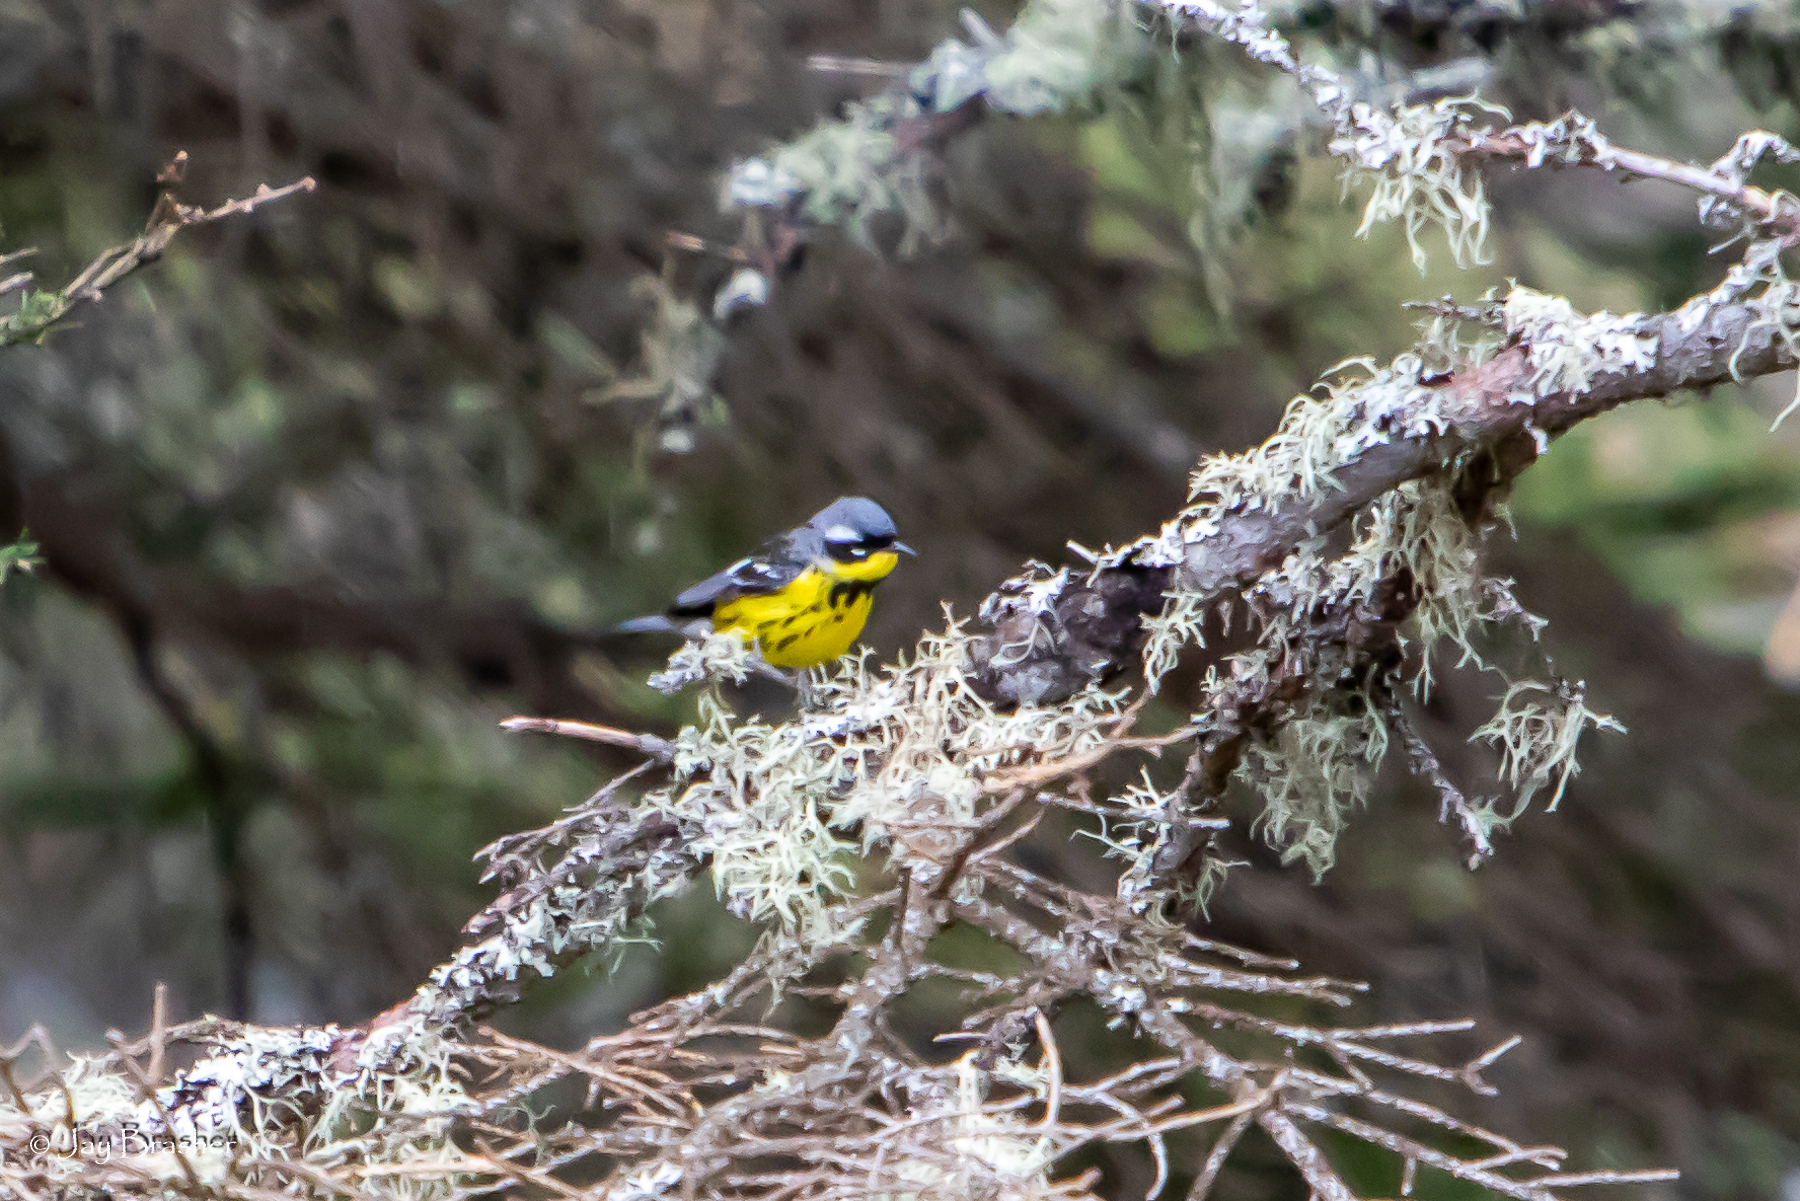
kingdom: Animalia
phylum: Chordata
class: Aves
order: Passeriformes
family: Parulidae
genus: Setophaga
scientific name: Setophaga magnolia
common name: Magnolia warbler
